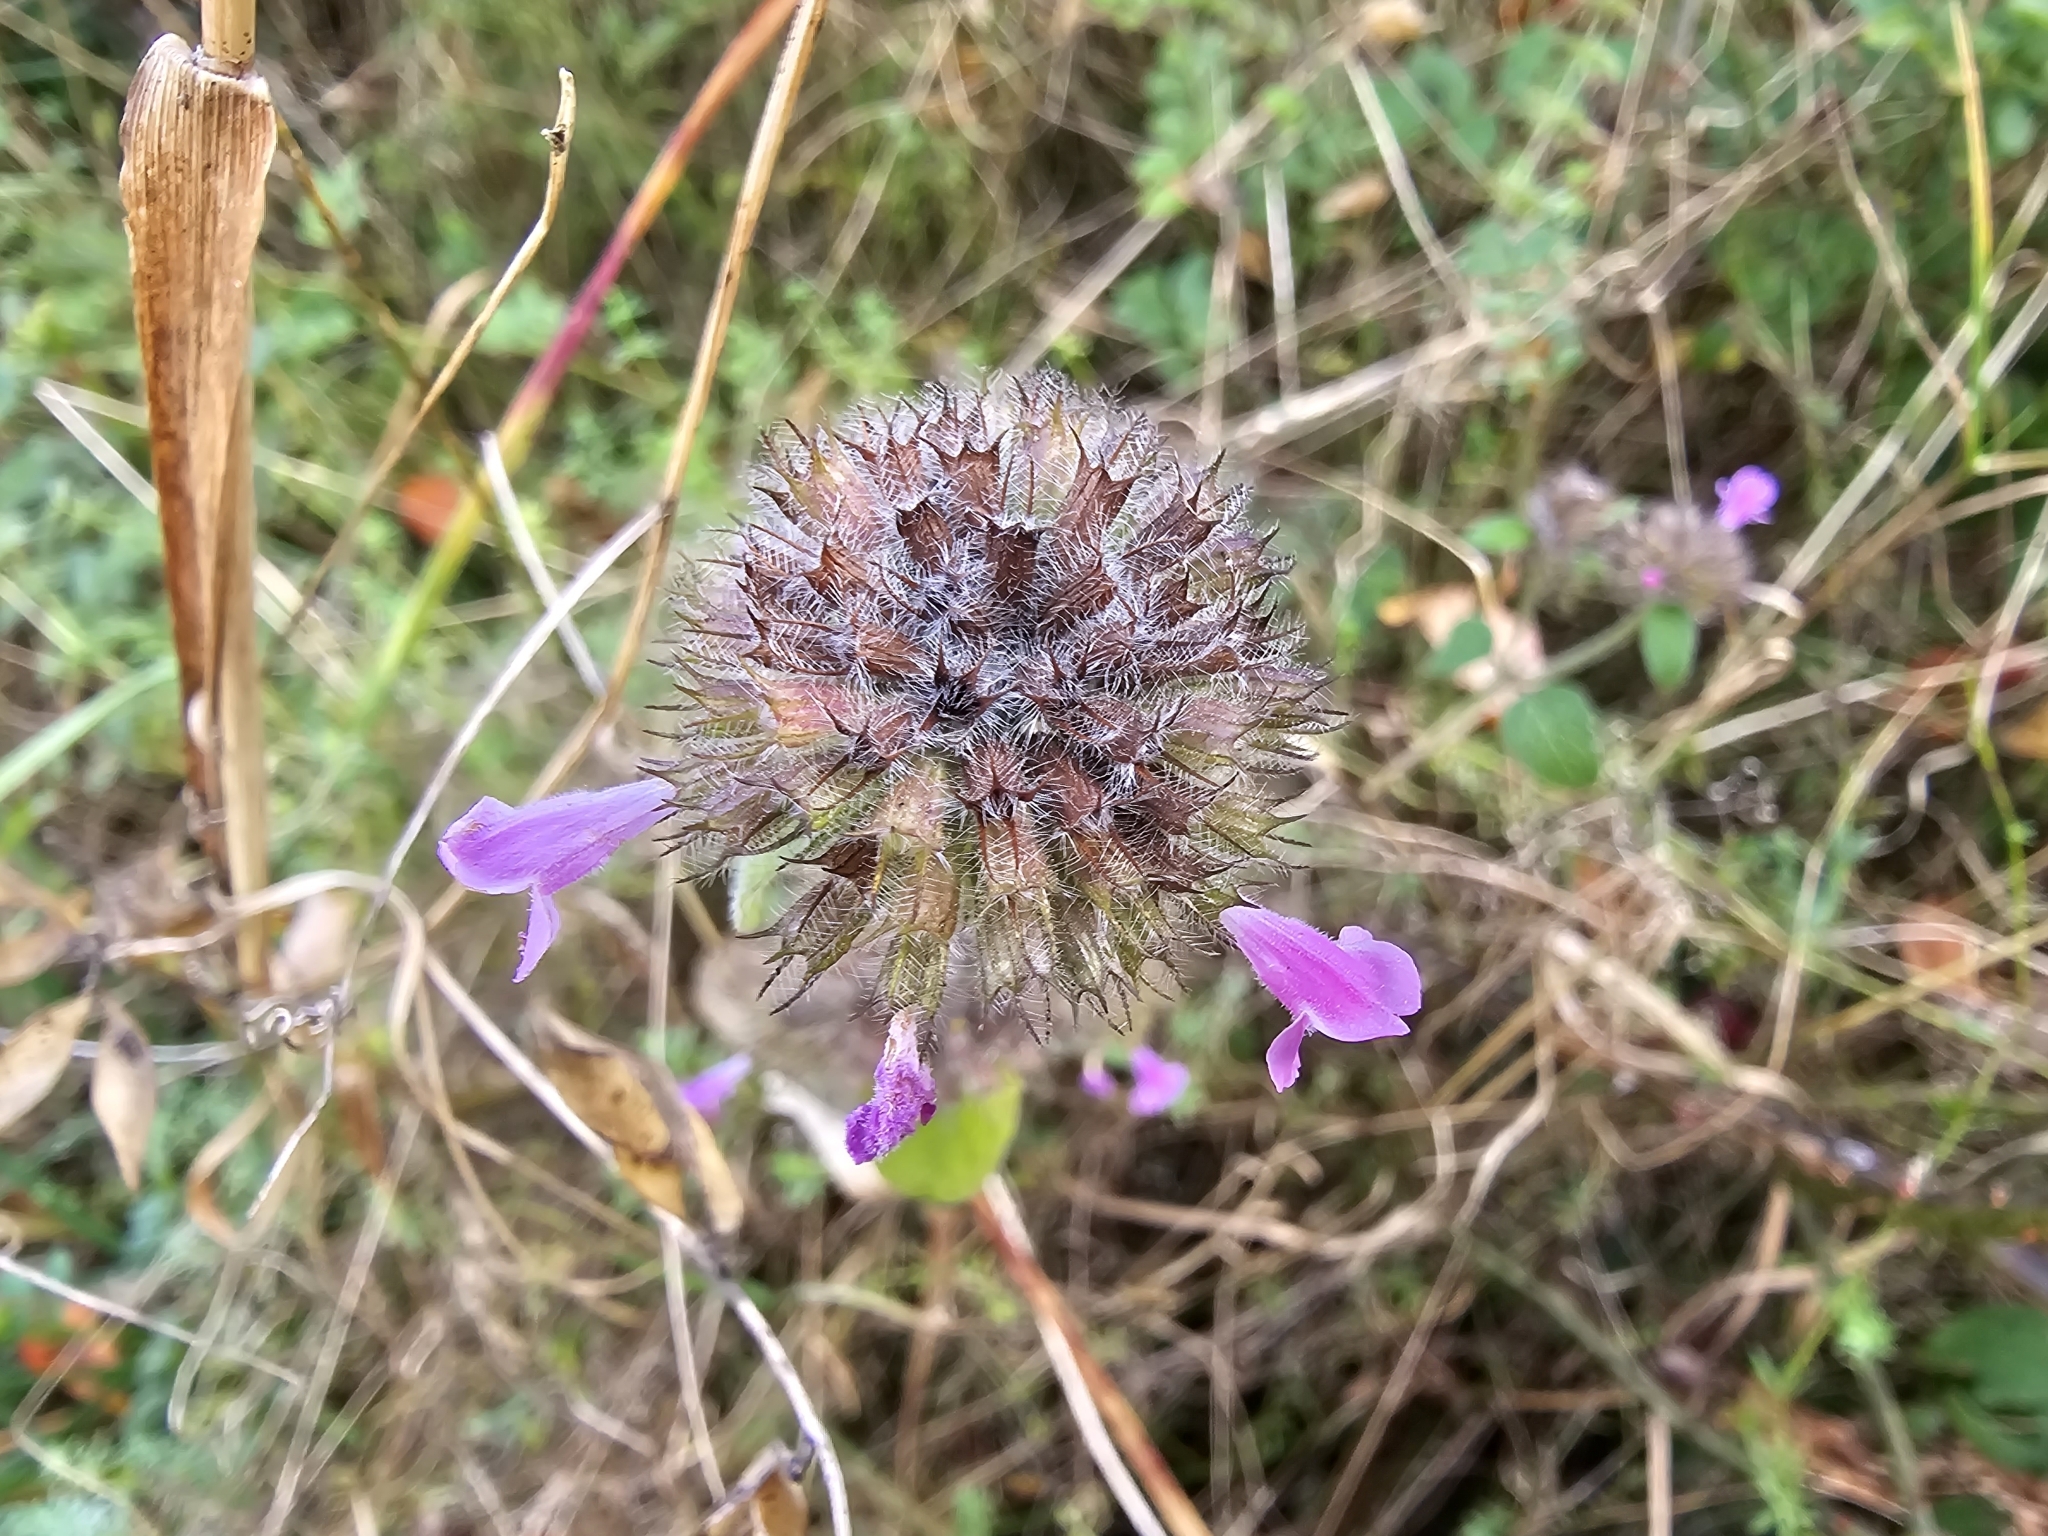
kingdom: Plantae
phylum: Tracheophyta
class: Magnoliopsida
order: Lamiales
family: Lamiaceae
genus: Clinopodium
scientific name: Clinopodium vulgare
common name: Wild basil
